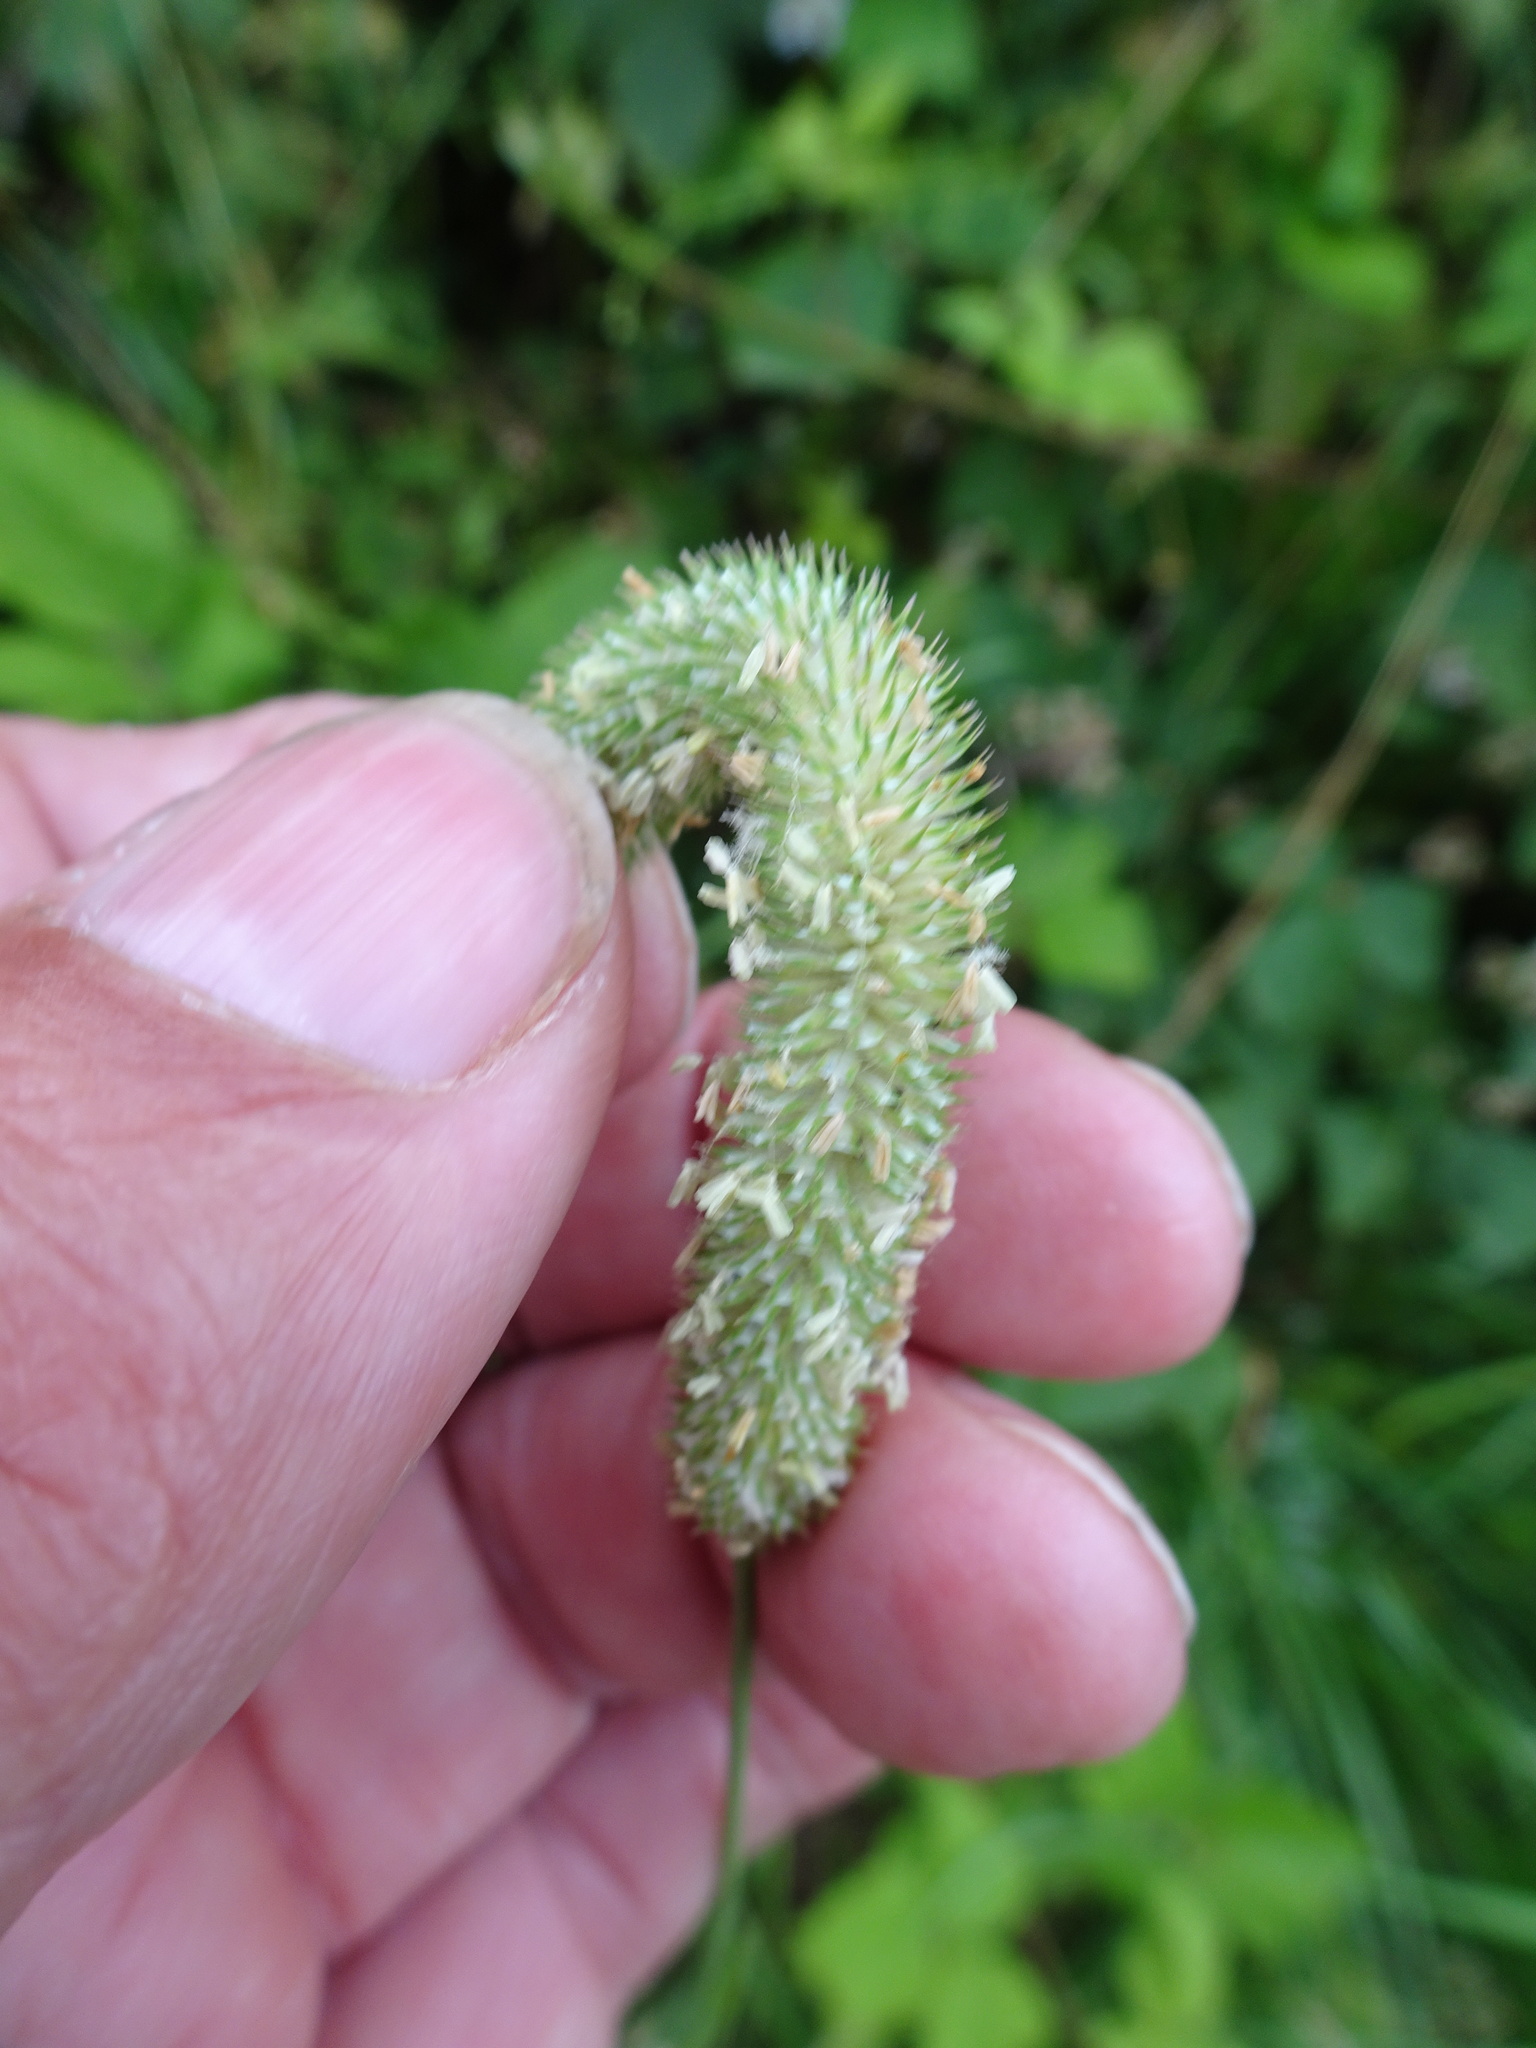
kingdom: Plantae
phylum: Tracheophyta
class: Liliopsida
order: Poales
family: Poaceae
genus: Phleum
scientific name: Phleum pratense
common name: Timothy grass
